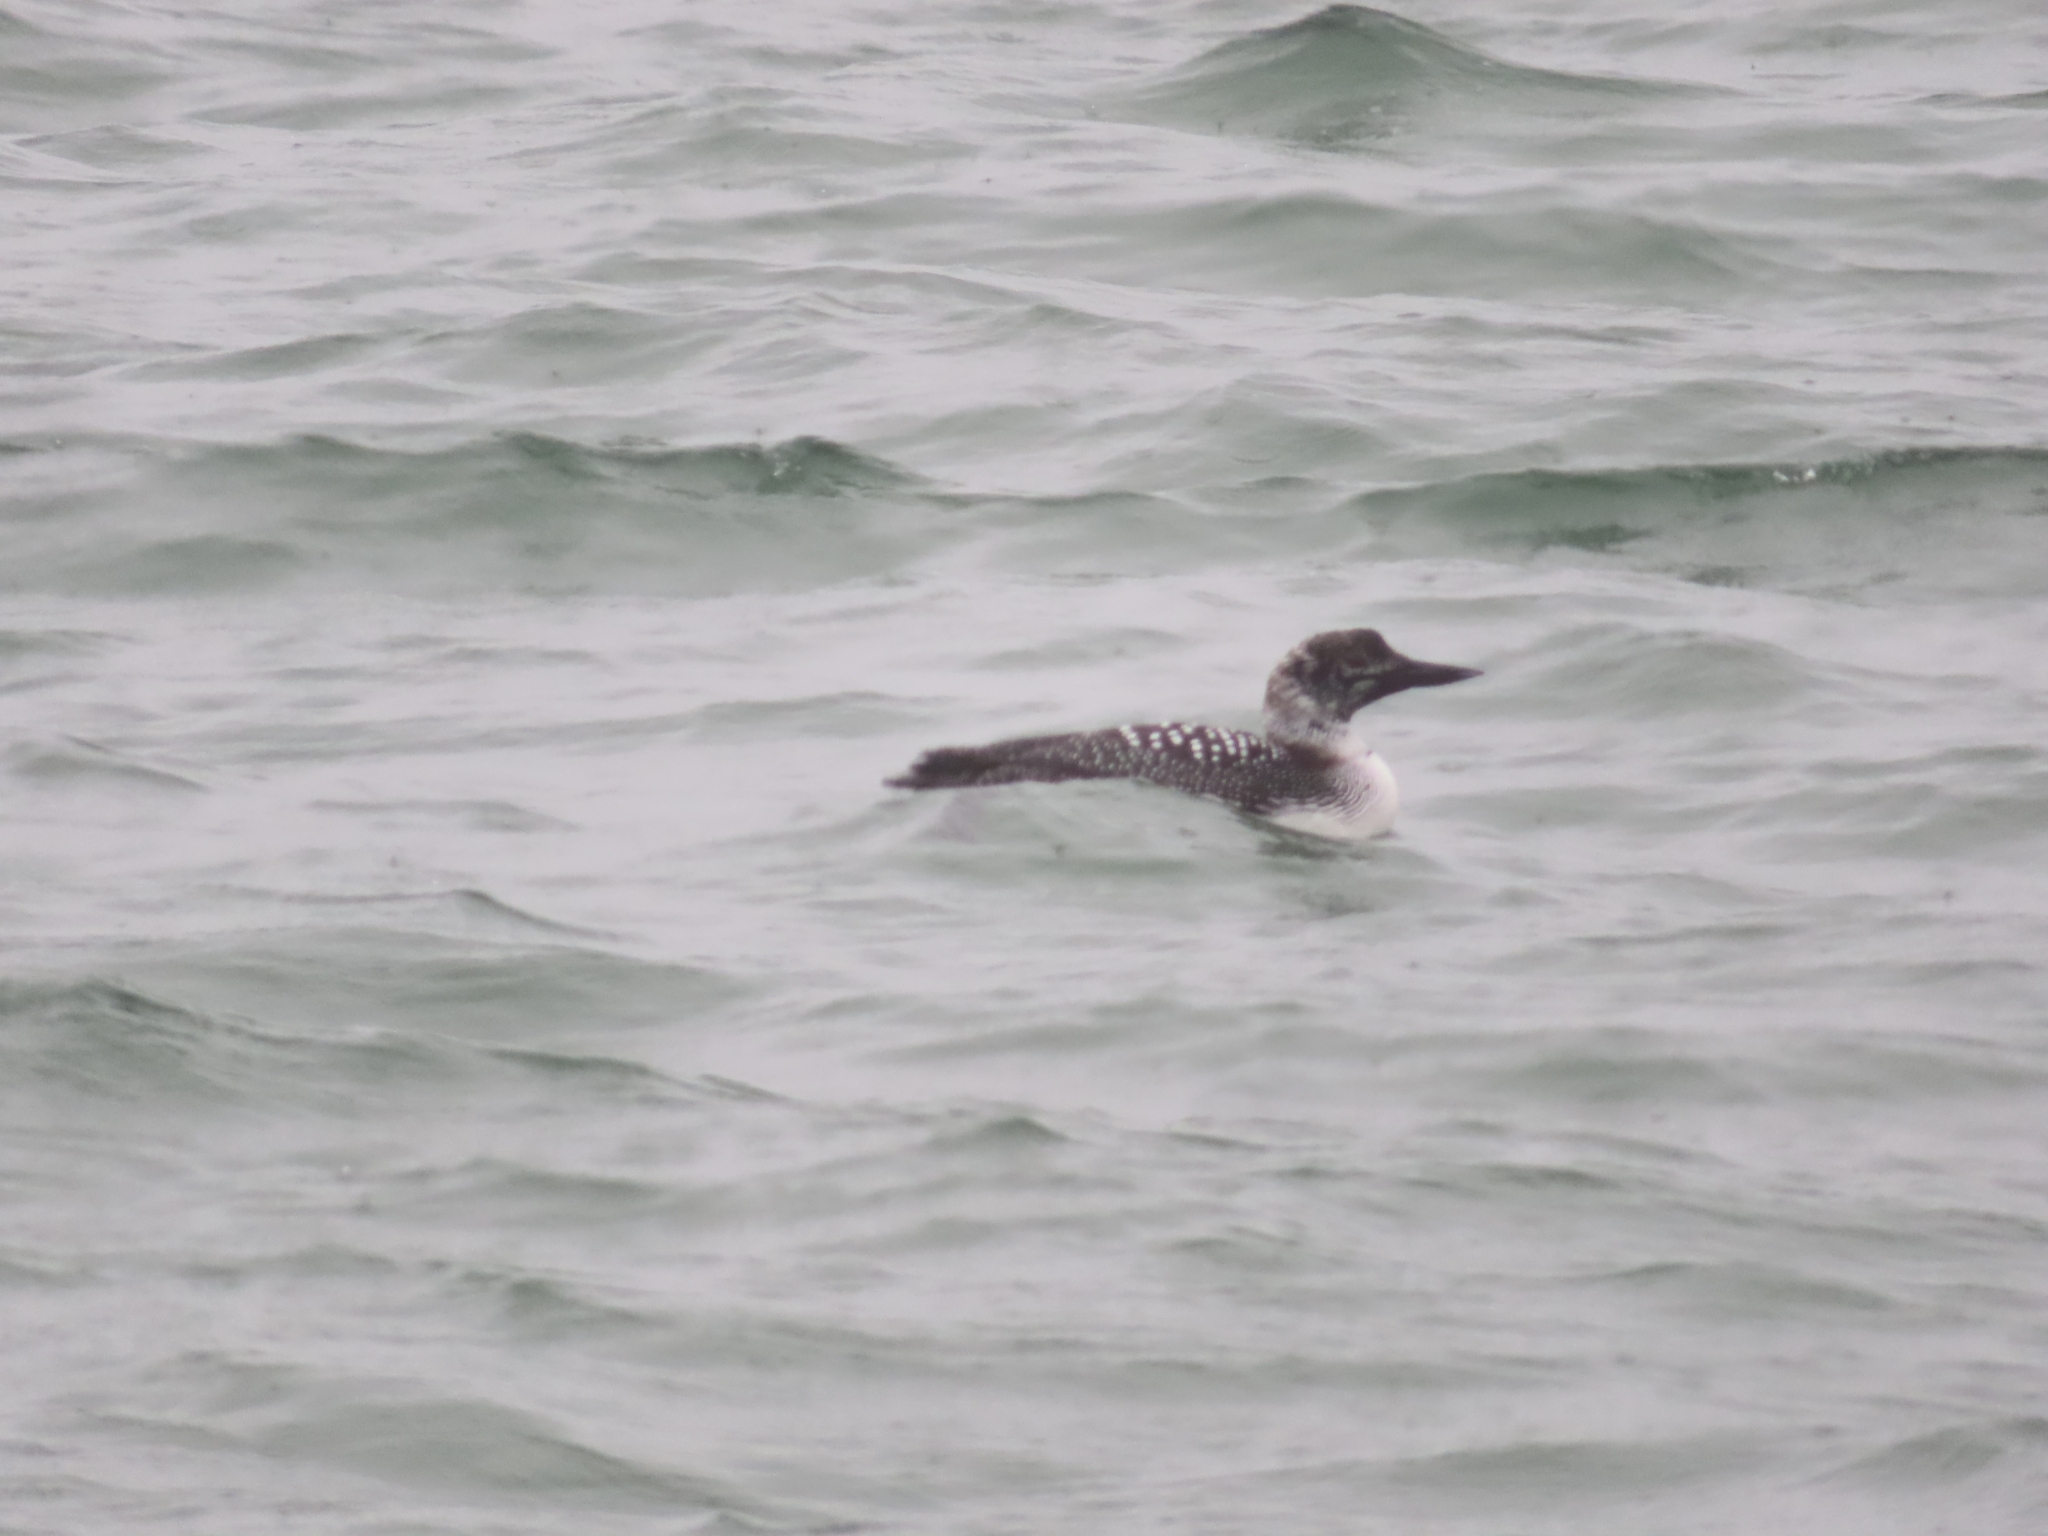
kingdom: Animalia
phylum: Chordata
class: Aves
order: Gaviiformes
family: Gaviidae
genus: Gavia
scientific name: Gavia immer
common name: Common loon
